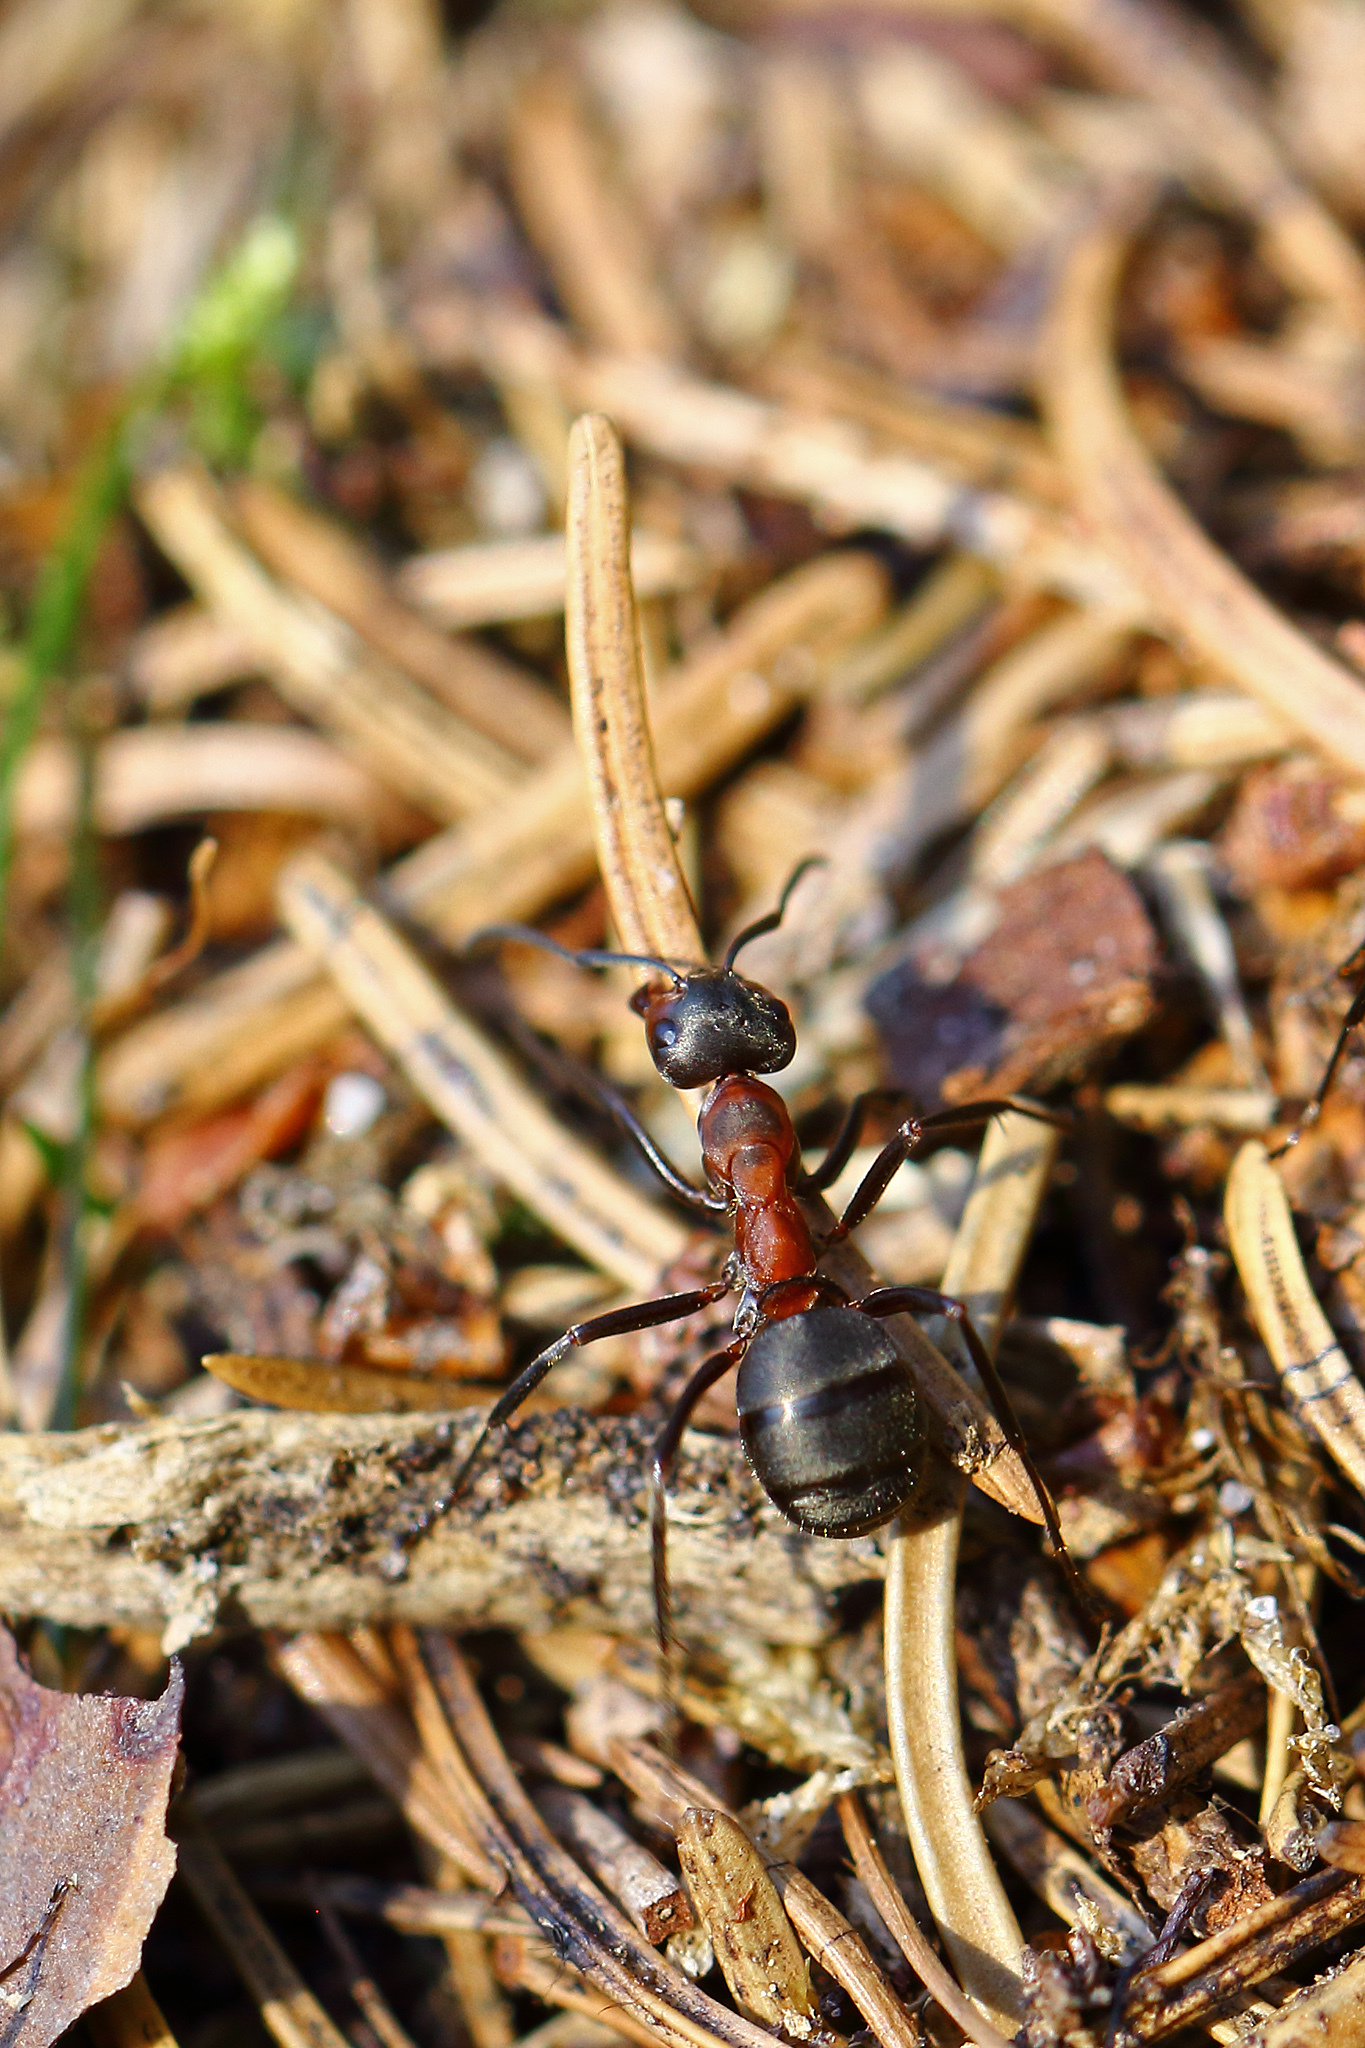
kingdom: Animalia
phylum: Arthropoda
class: Insecta
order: Hymenoptera
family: Formicidae
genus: Formica
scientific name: Formica
